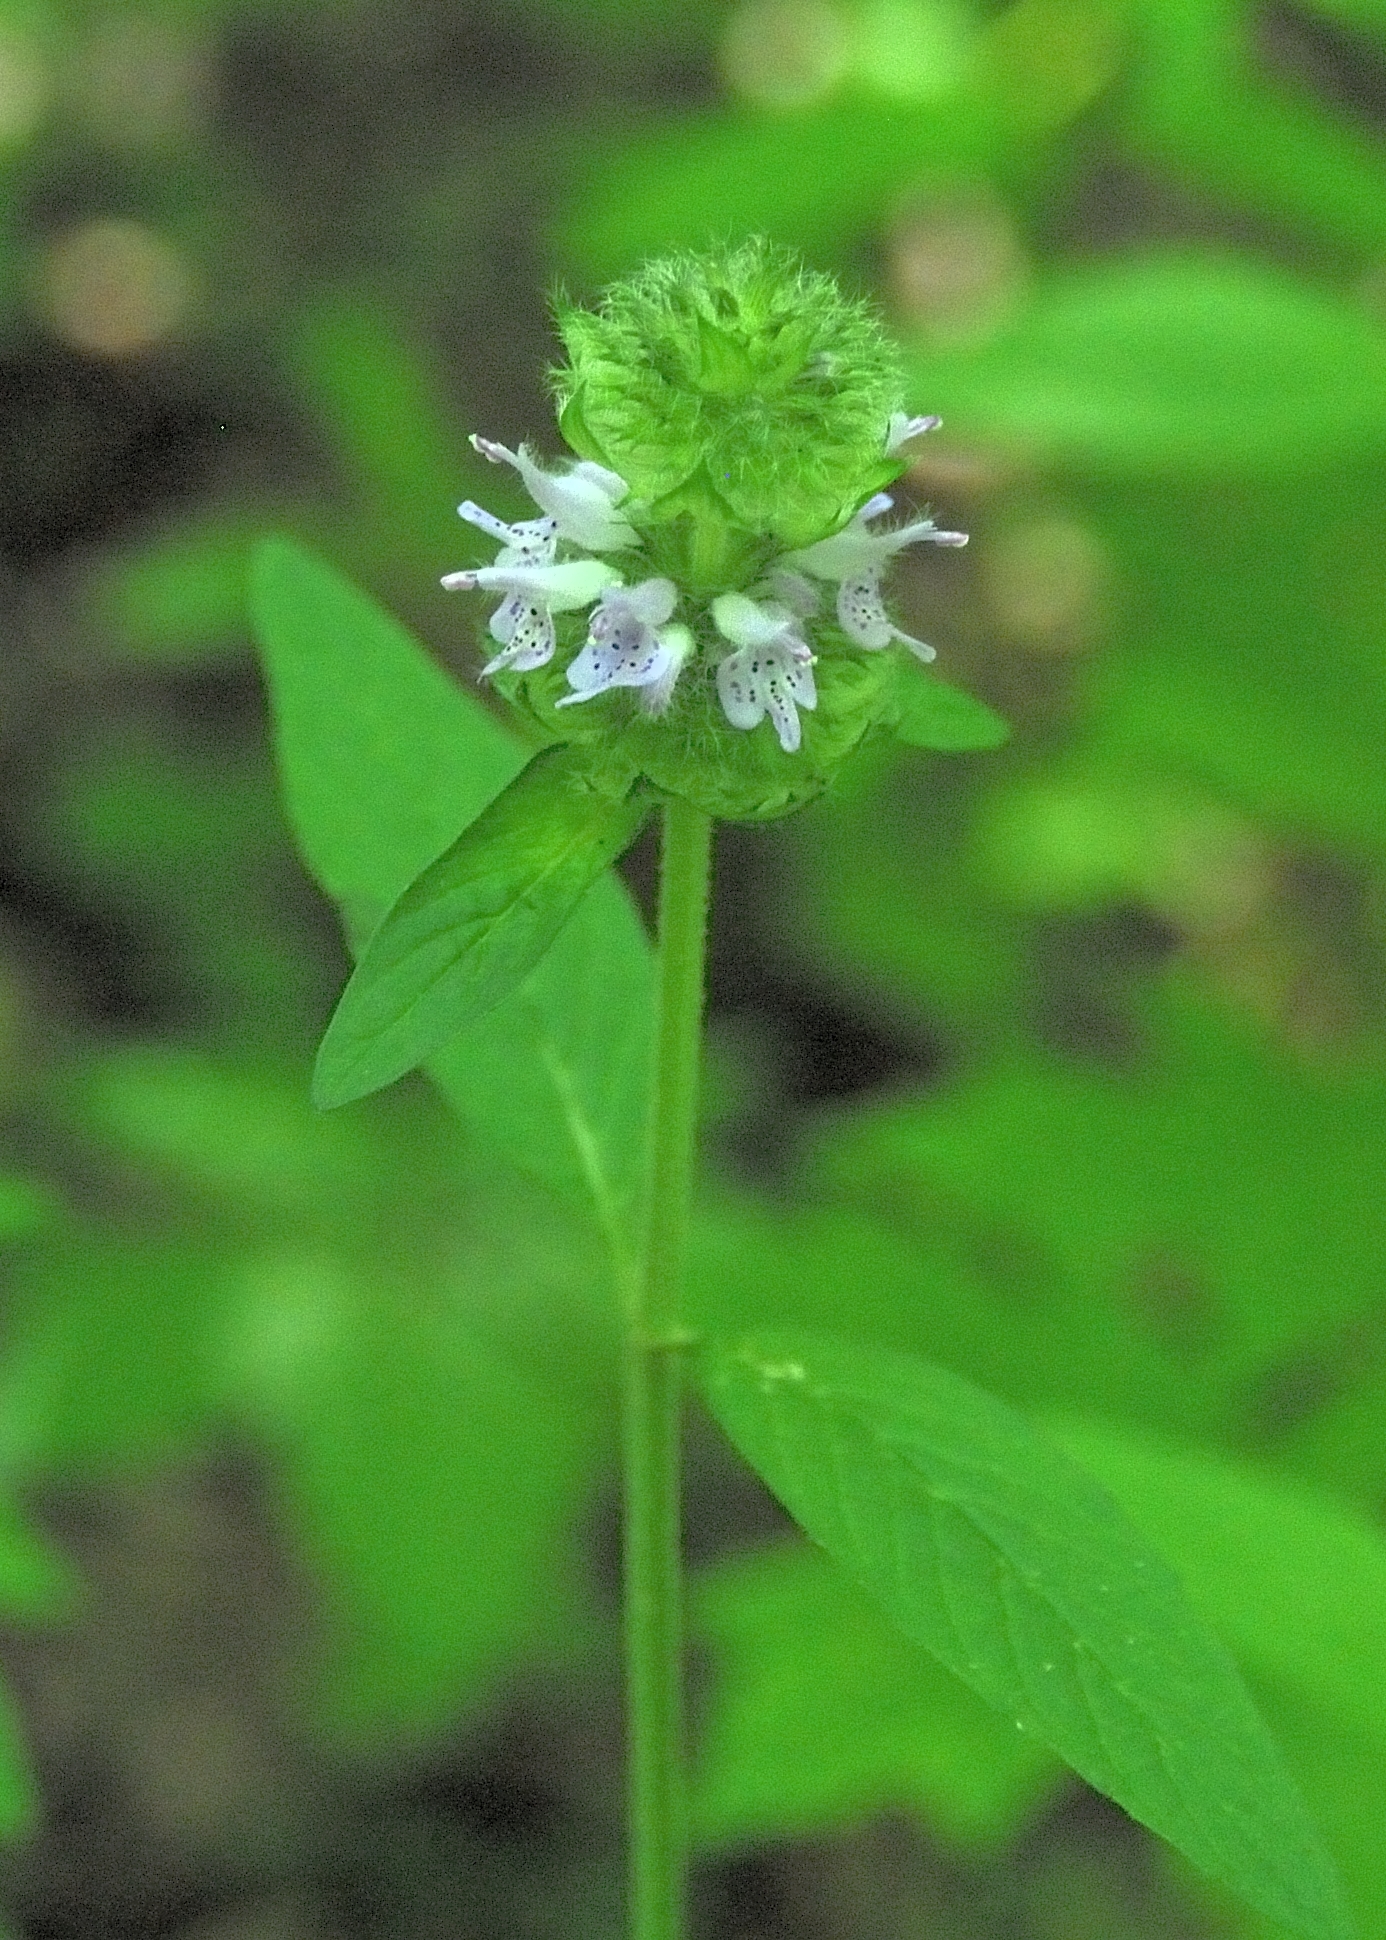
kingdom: Plantae
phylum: Tracheophyta
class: Magnoliopsida
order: Lamiales
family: Lamiaceae
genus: Blephilia
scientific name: Blephilia ciliata
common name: Downy blephilia
